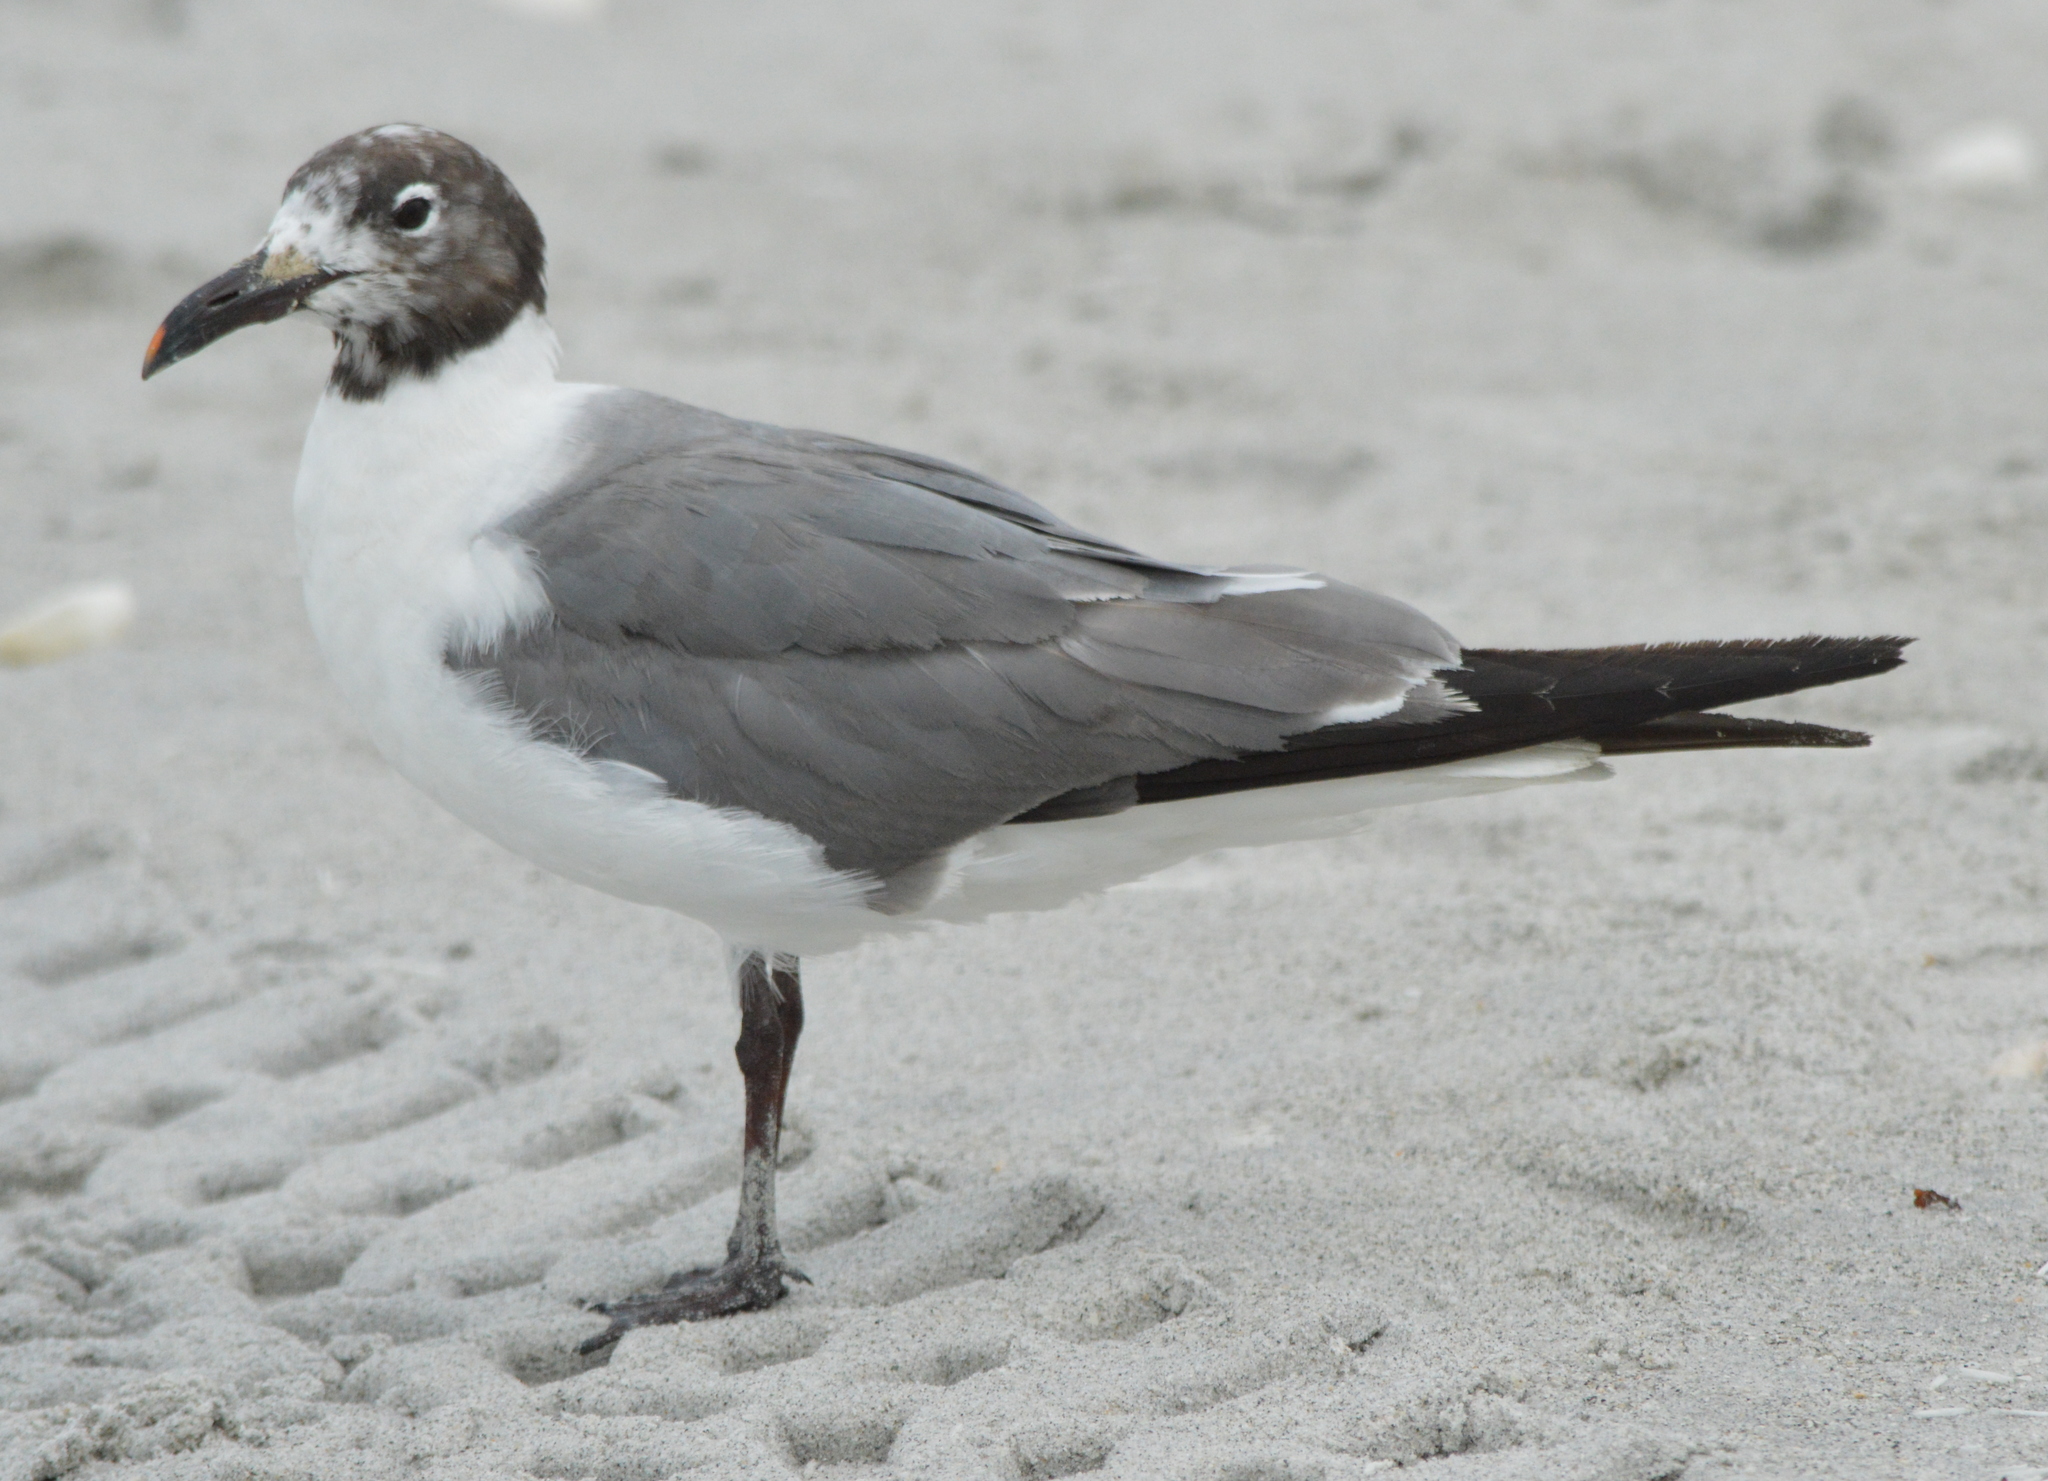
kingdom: Animalia
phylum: Chordata
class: Aves
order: Charadriiformes
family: Laridae
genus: Leucophaeus
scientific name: Leucophaeus atricilla
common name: Laughing gull
